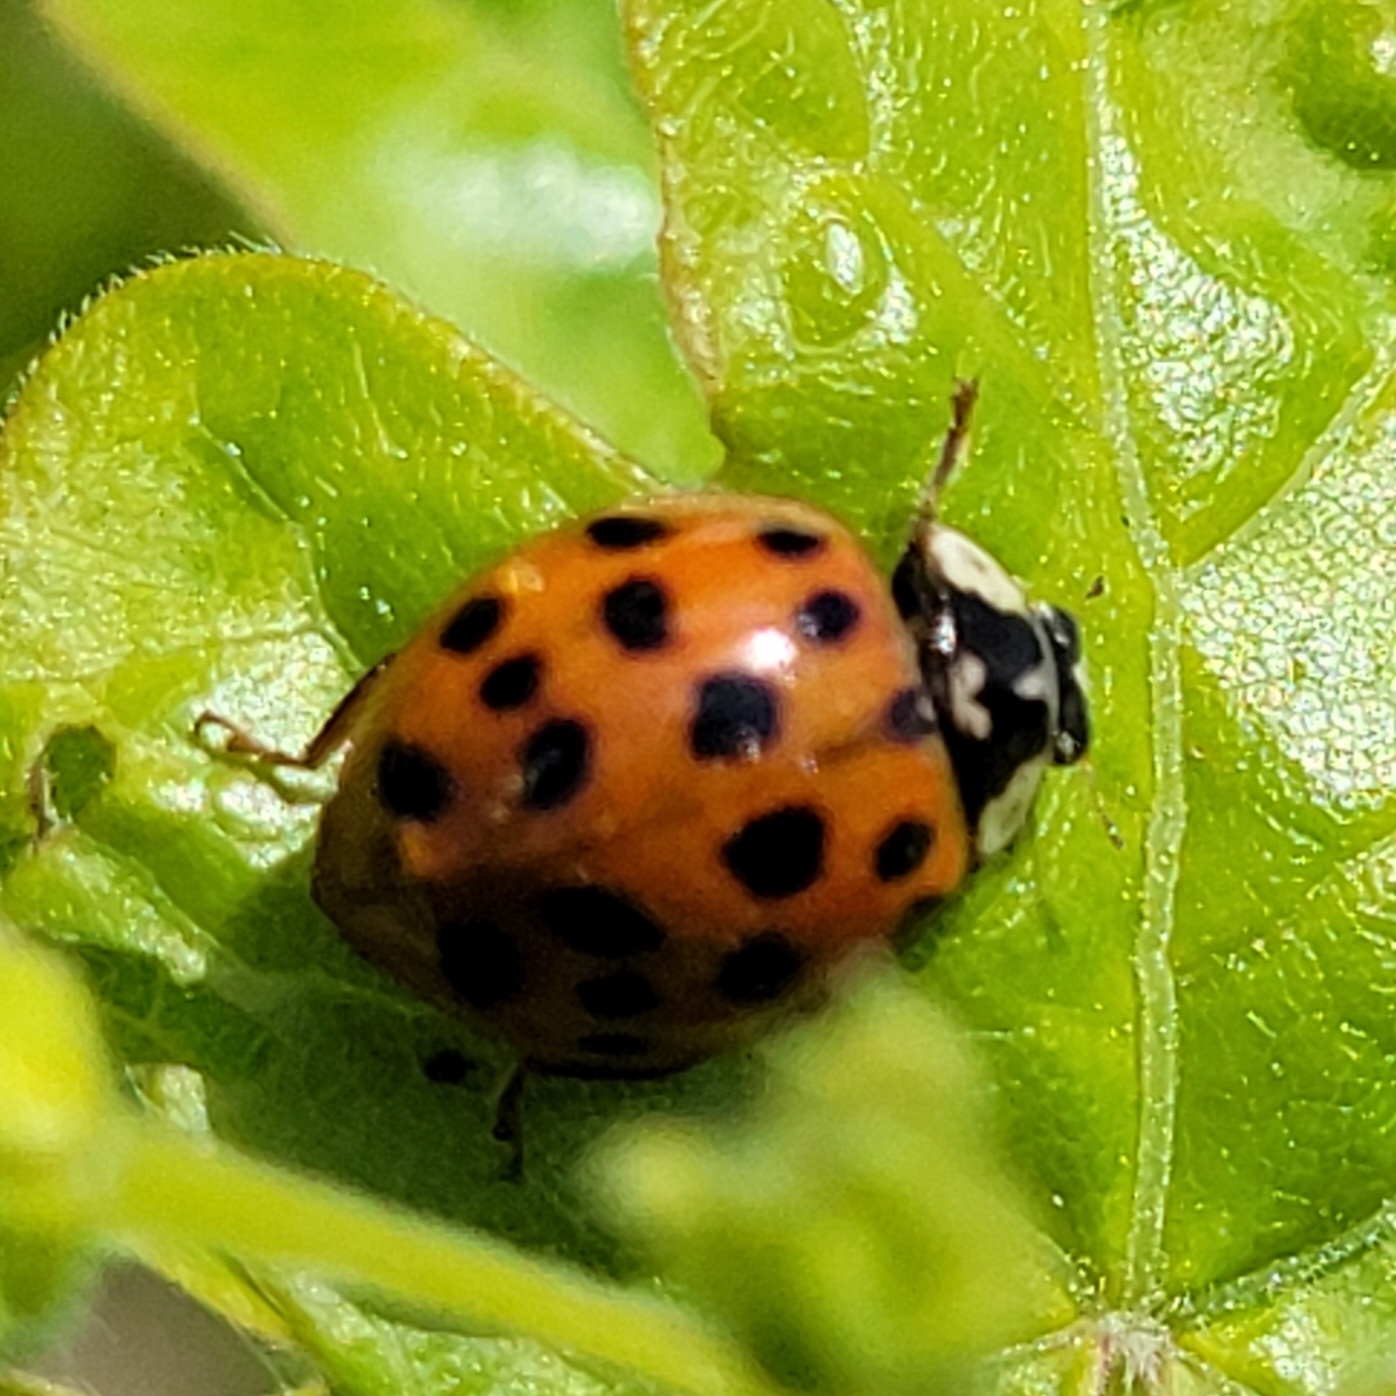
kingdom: Animalia
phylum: Arthropoda
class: Insecta
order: Coleoptera
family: Coccinellidae
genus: Harmonia
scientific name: Harmonia axyridis
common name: Harlequin ladybird
